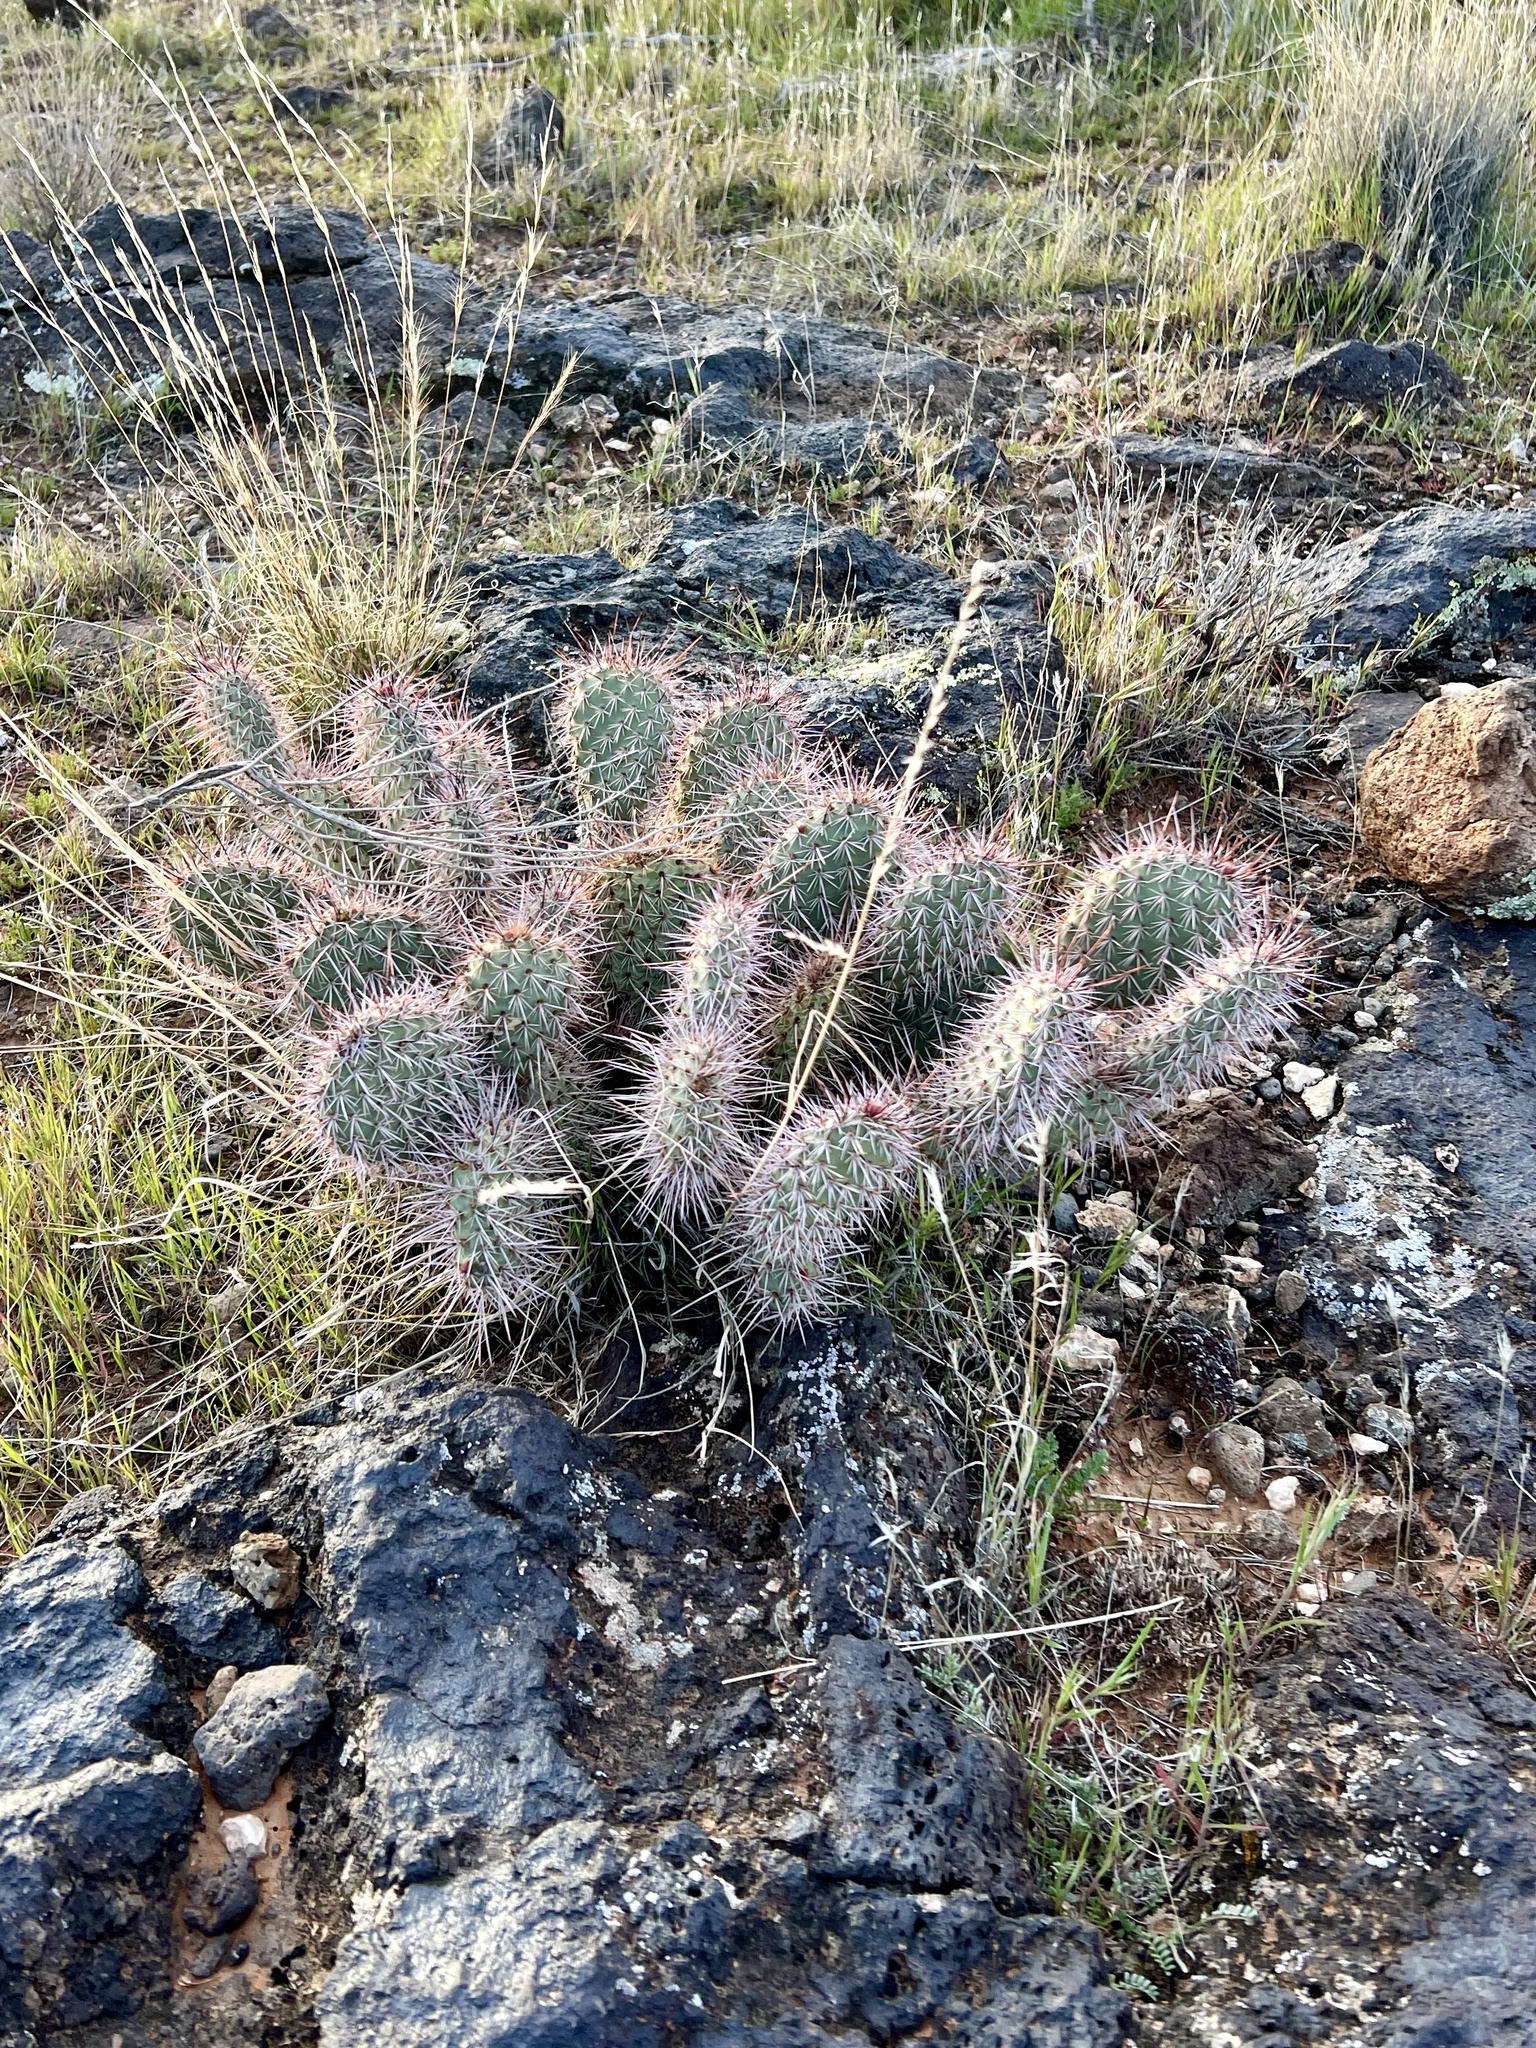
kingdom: Plantae
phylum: Tracheophyta
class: Magnoliopsida
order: Caryophyllales
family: Cactaceae
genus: Opuntia
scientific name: Opuntia polyacantha
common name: Plains prickly-pear
